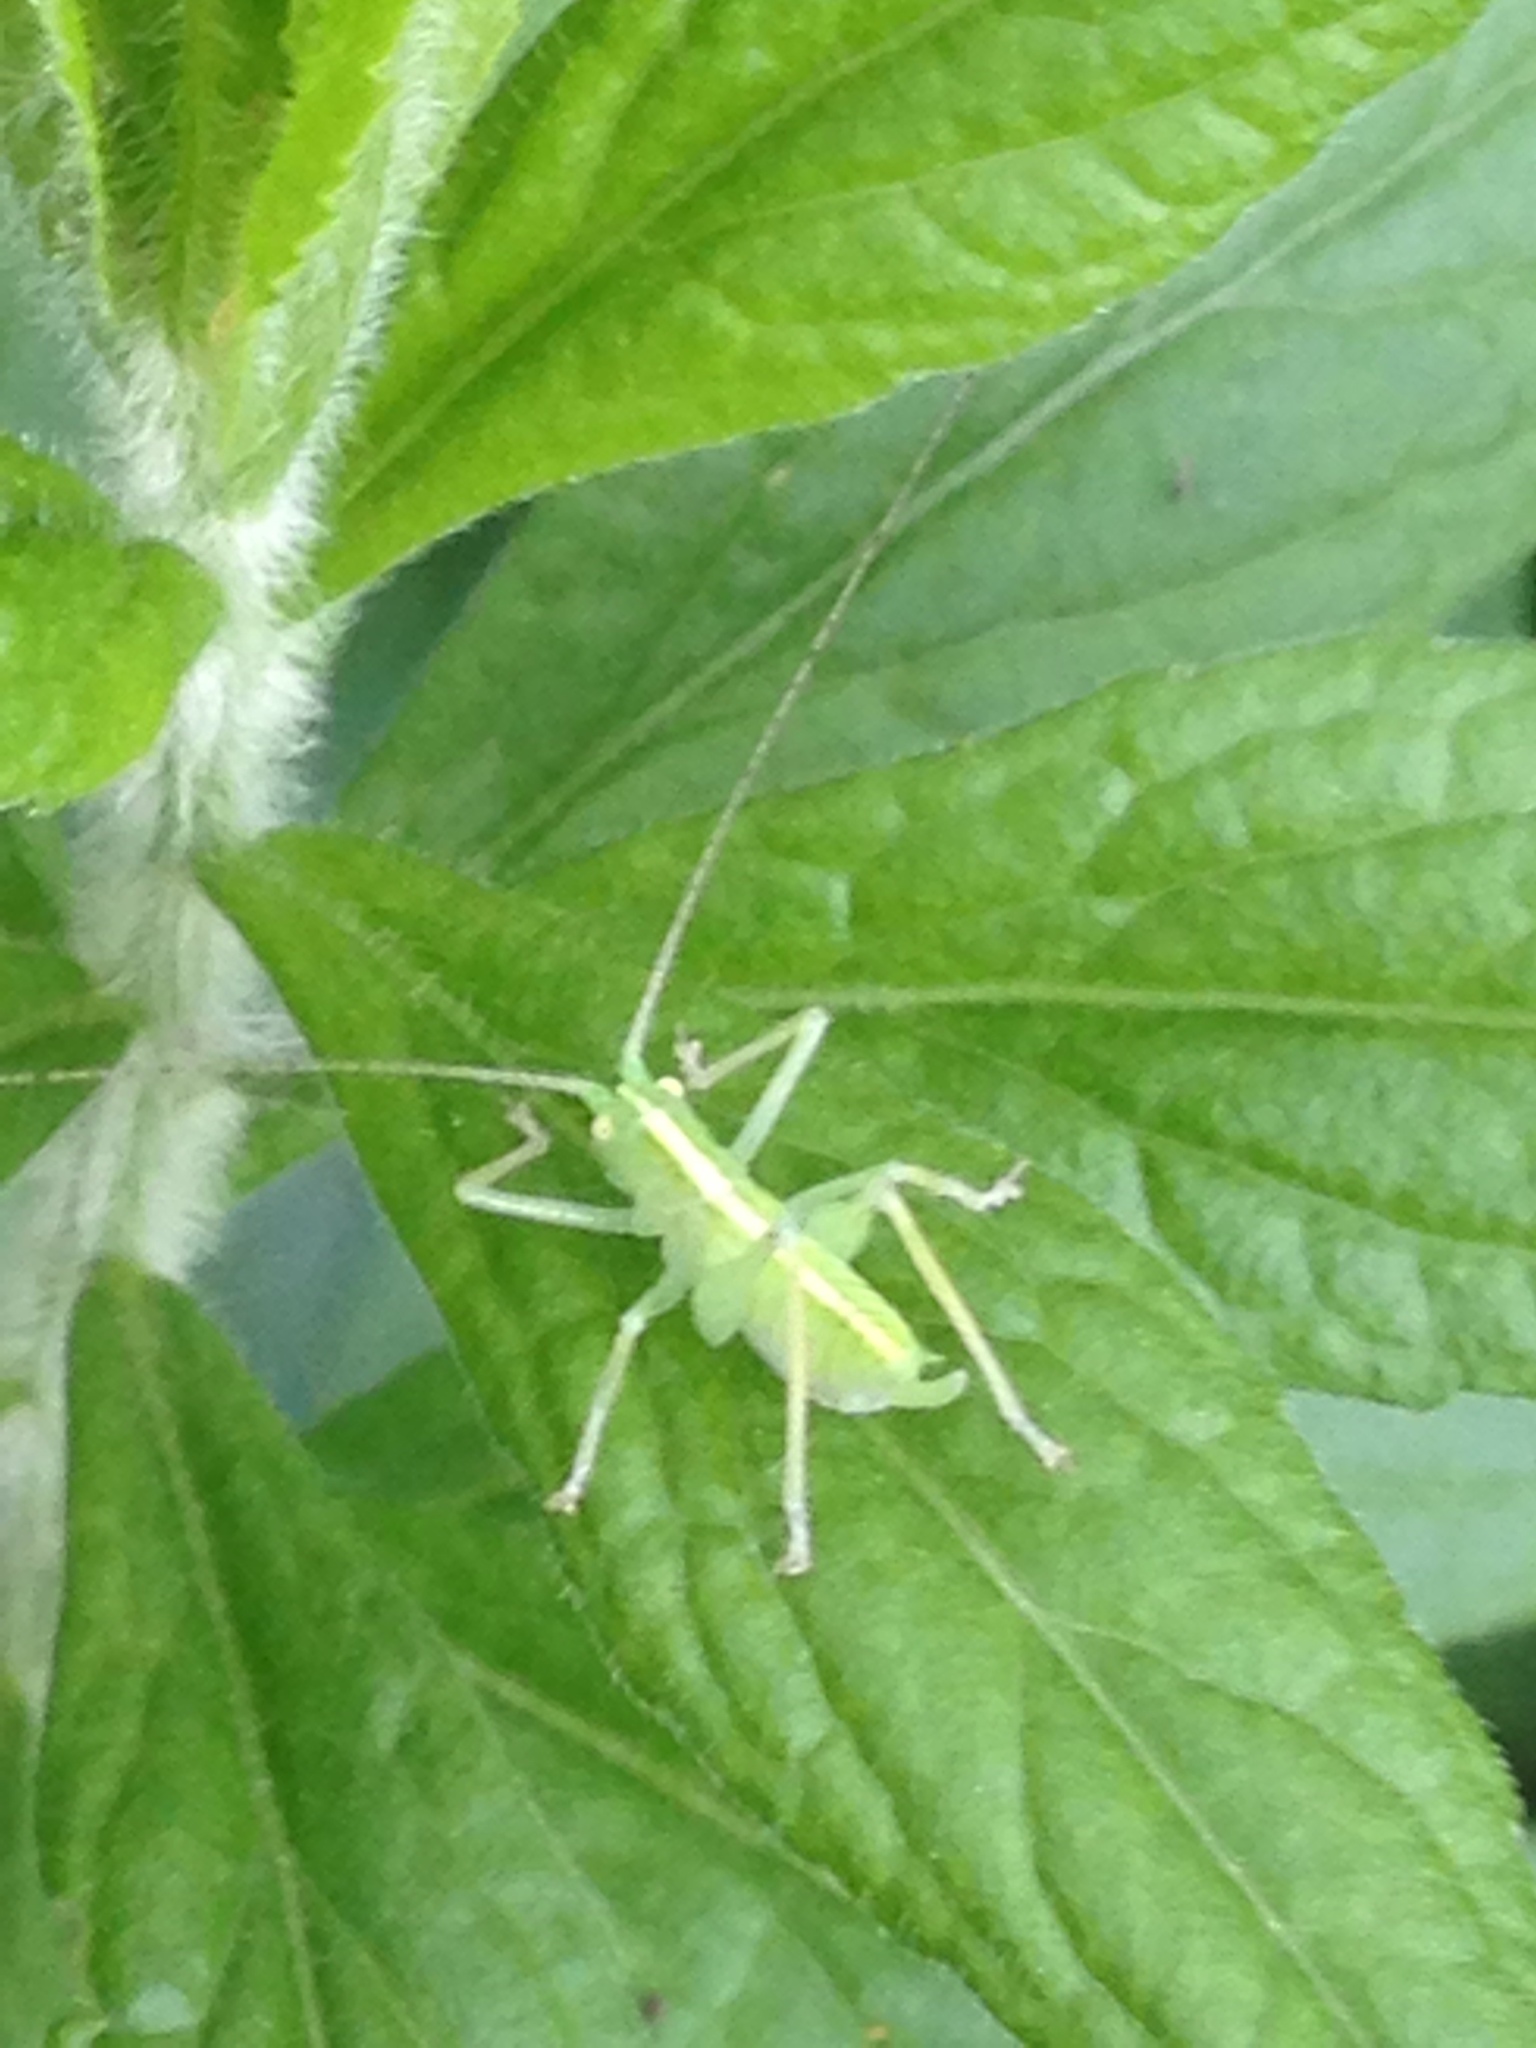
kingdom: Animalia
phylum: Arthropoda
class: Insecta
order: Orthoptera
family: Tettigoniidae
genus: Meconema
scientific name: Meconema thalassinum
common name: Oak bush-cricket
